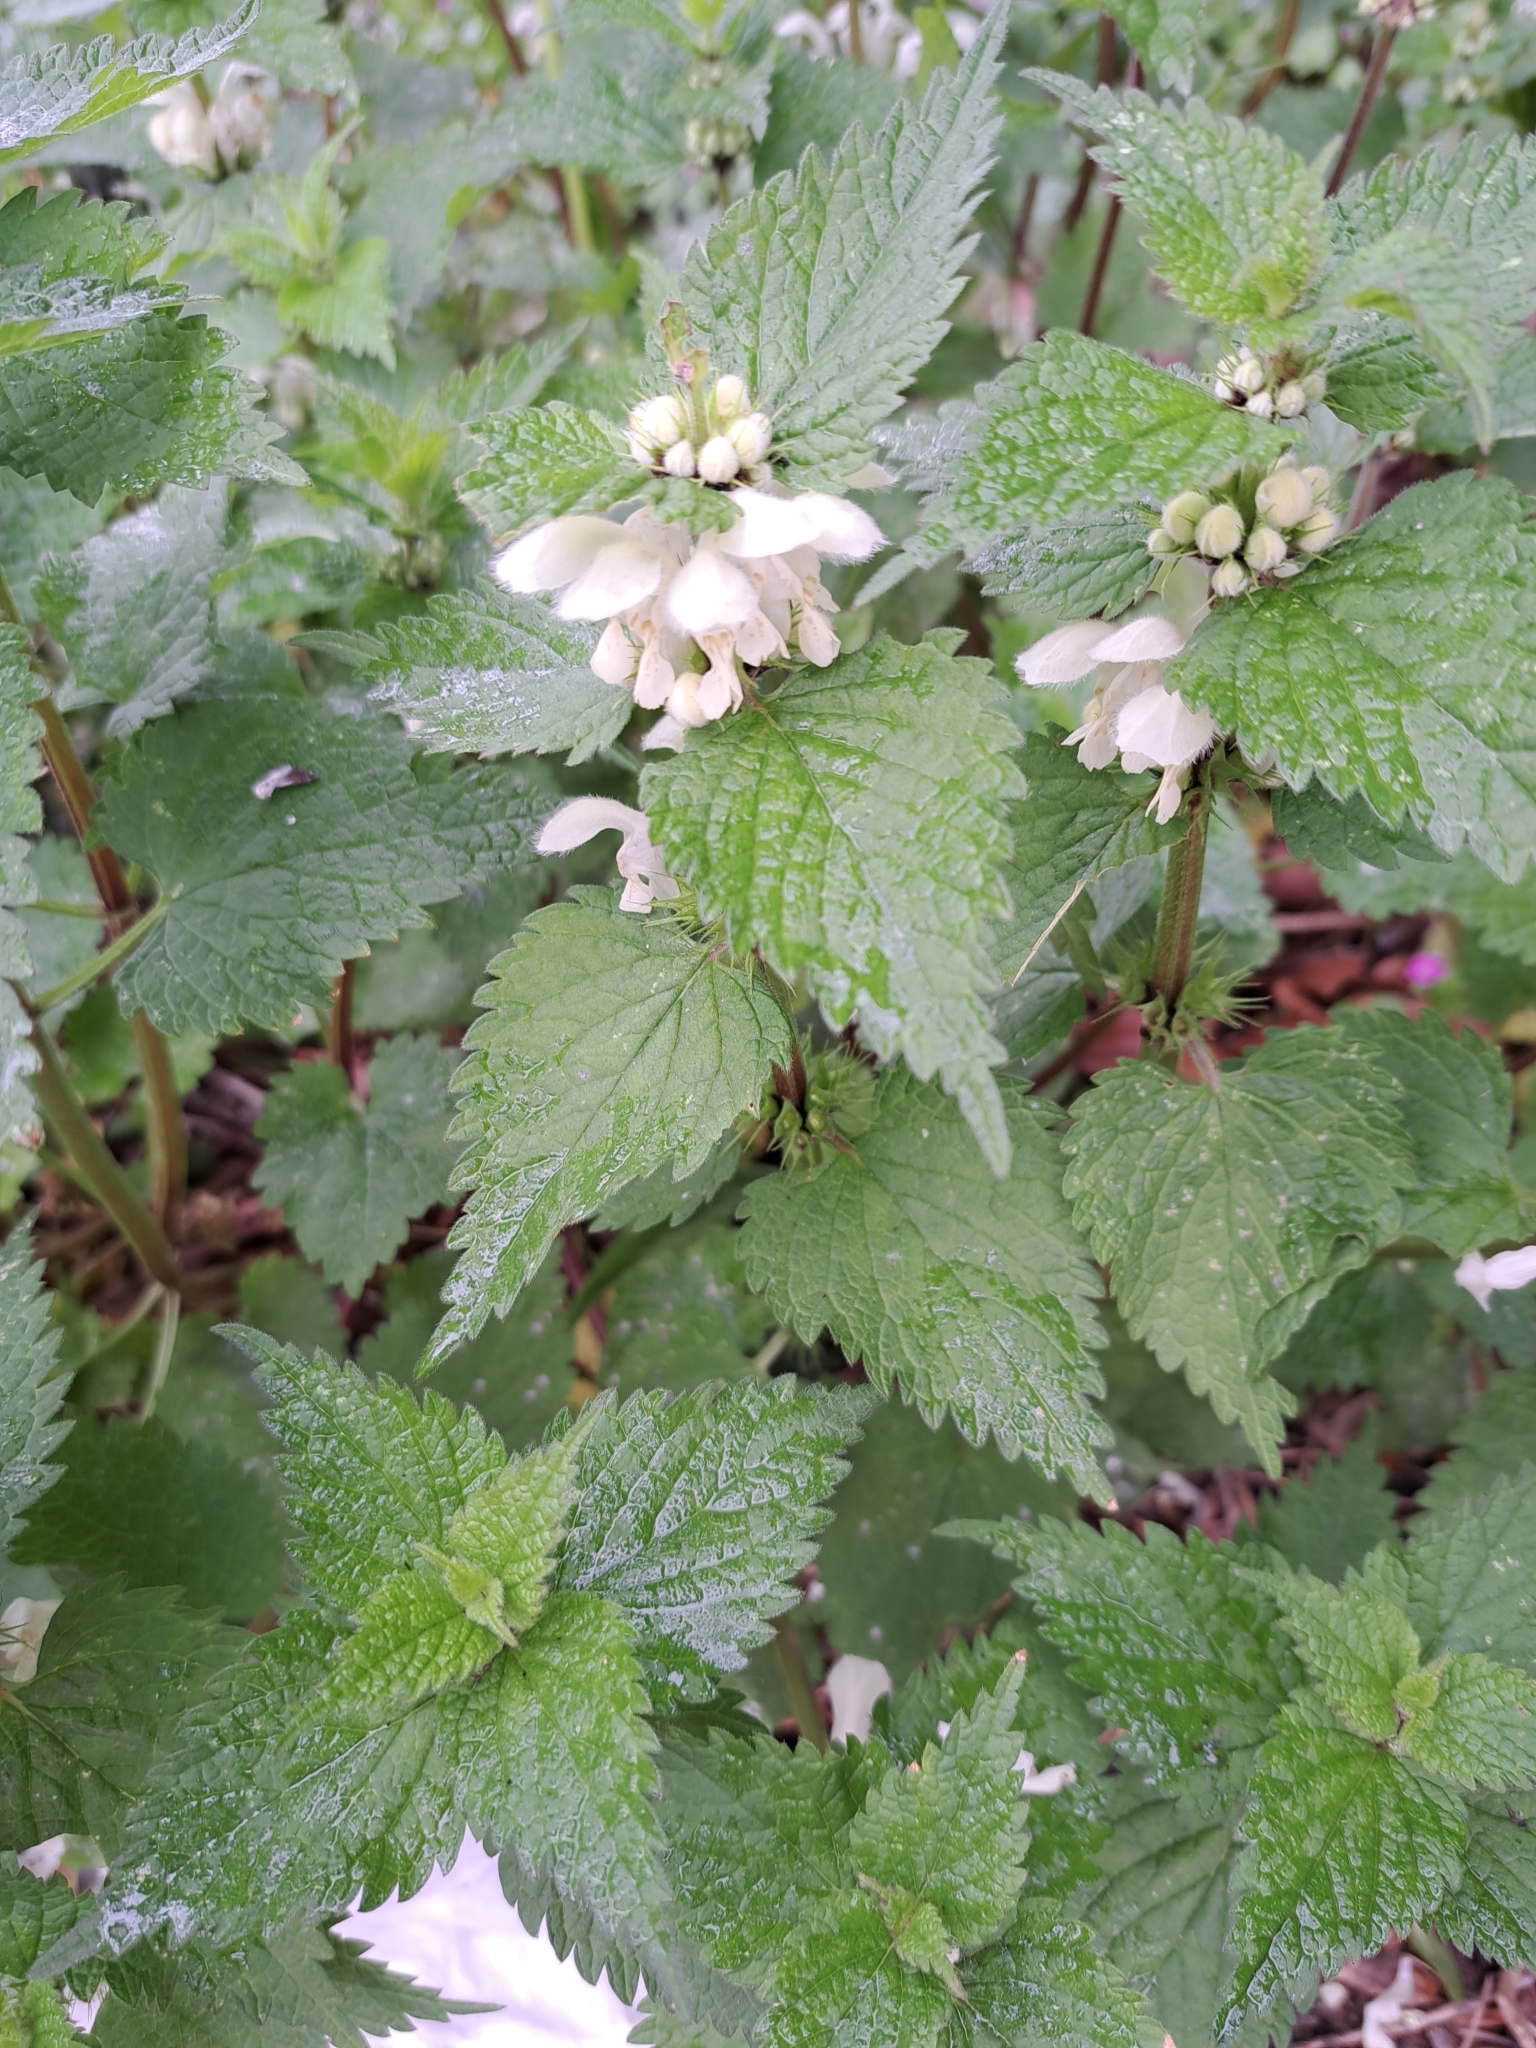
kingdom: Plantae
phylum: Tracheophyta
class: Magnoliopsida
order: Lamiales
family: Lamiaceae
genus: Lamium
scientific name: Lamium album
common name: White dead-nettle
